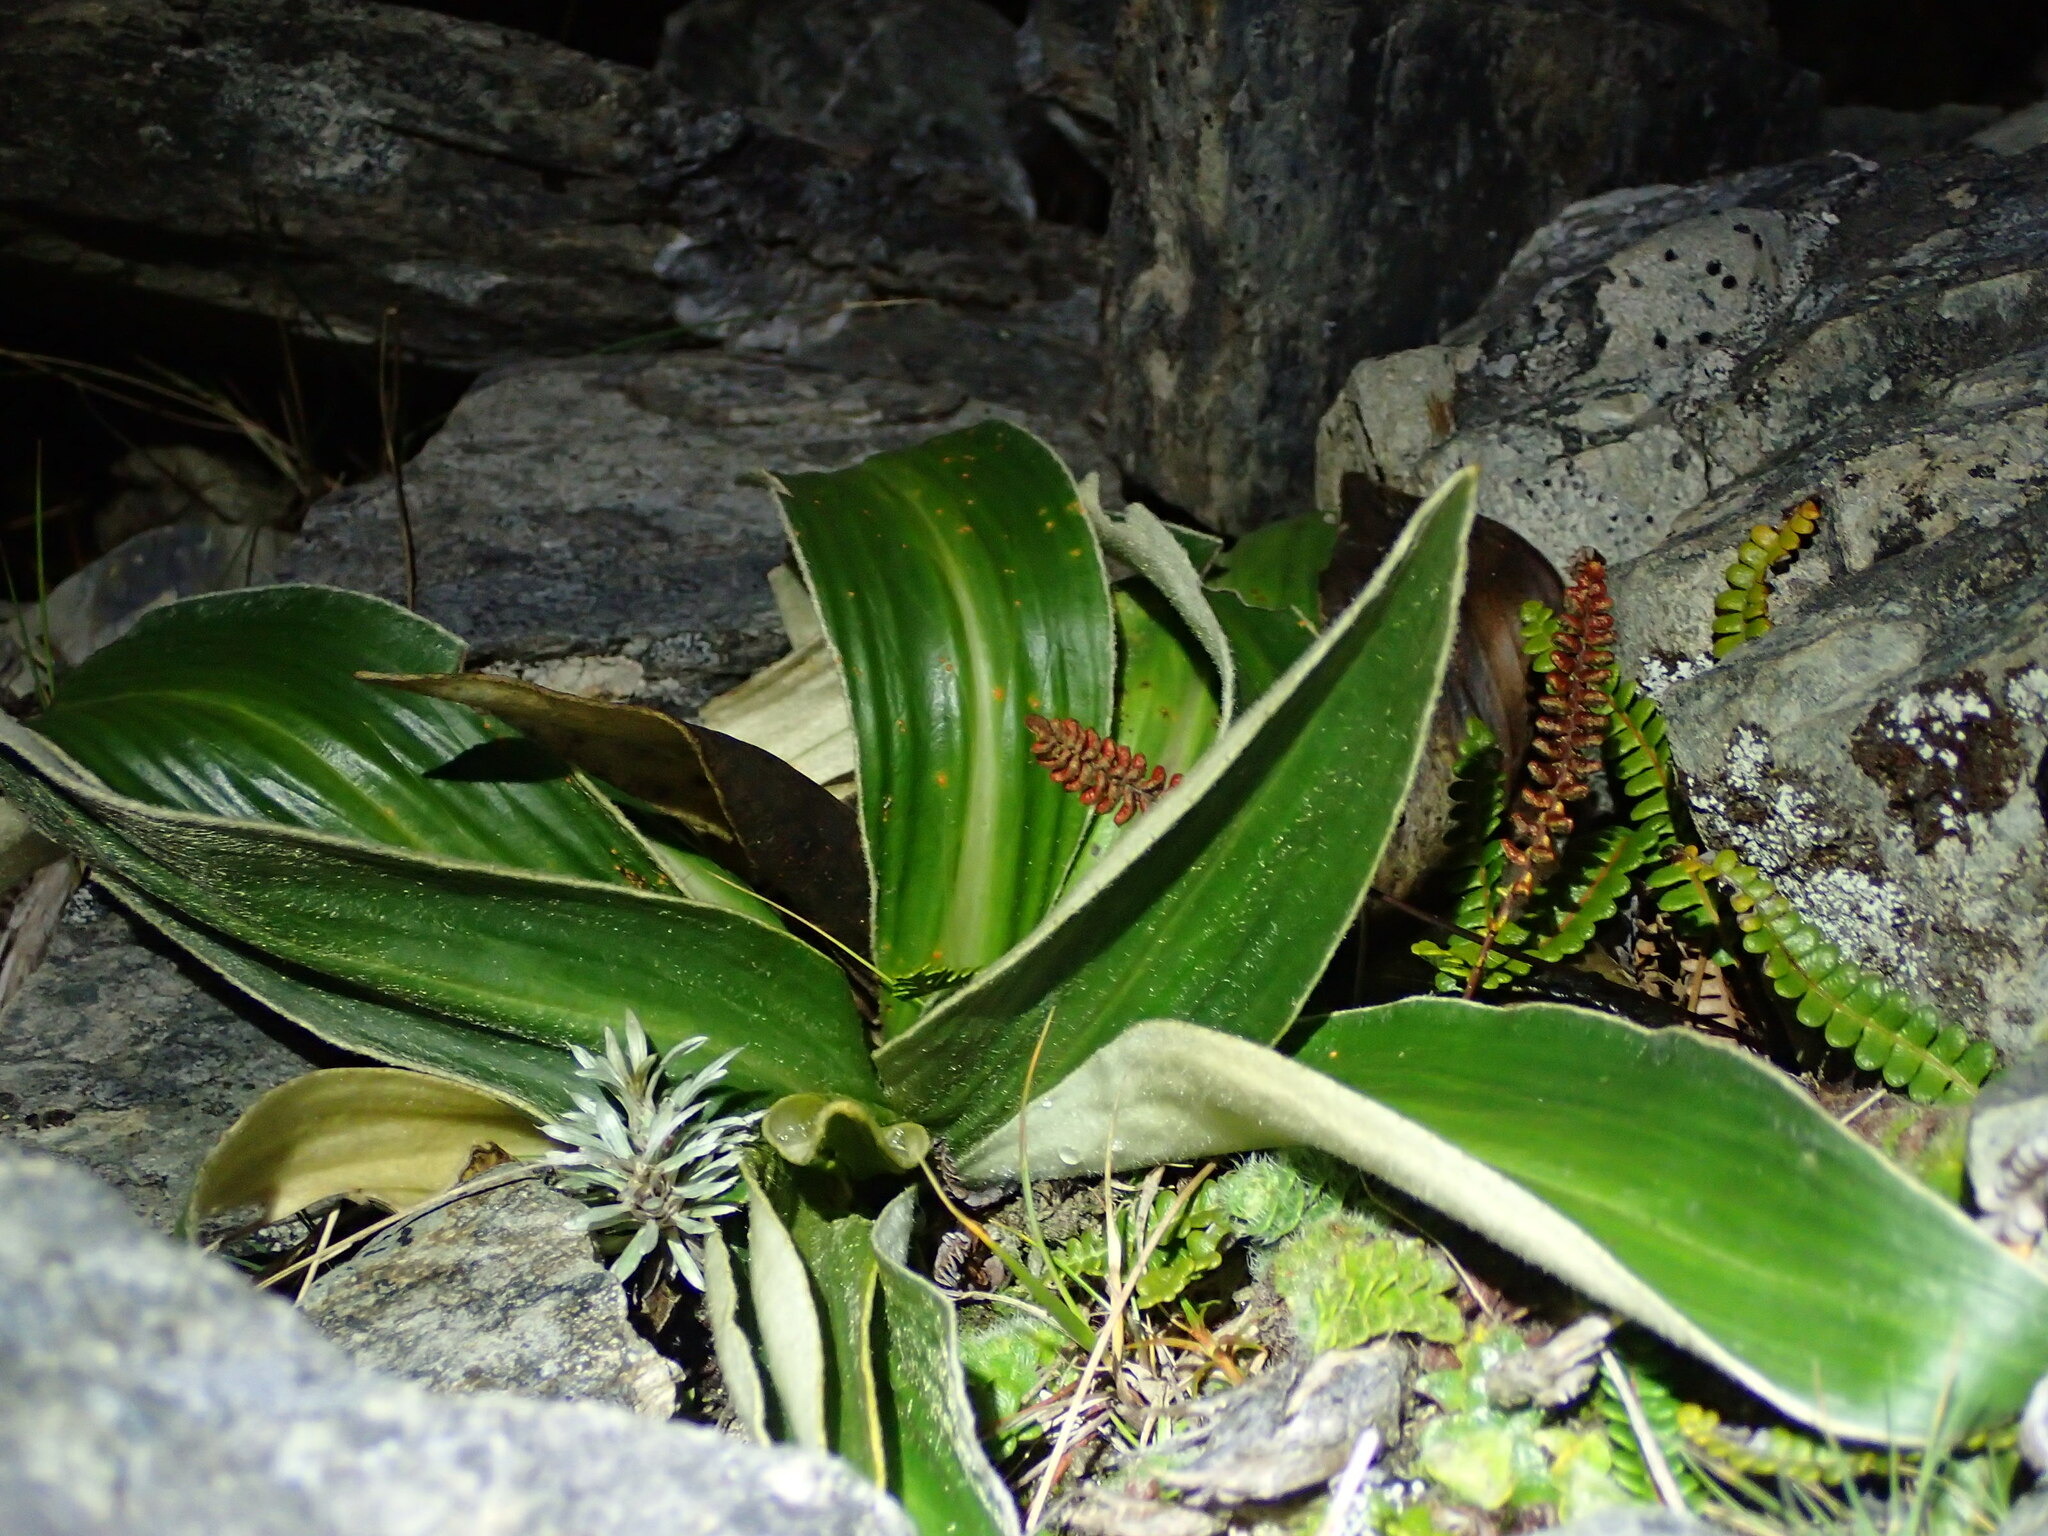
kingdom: Plantae
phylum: Tracheophyta
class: Magnoliopsida
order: Asterales
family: Asteraceae
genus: Celmisia
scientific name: Celmisia verbascifolia
